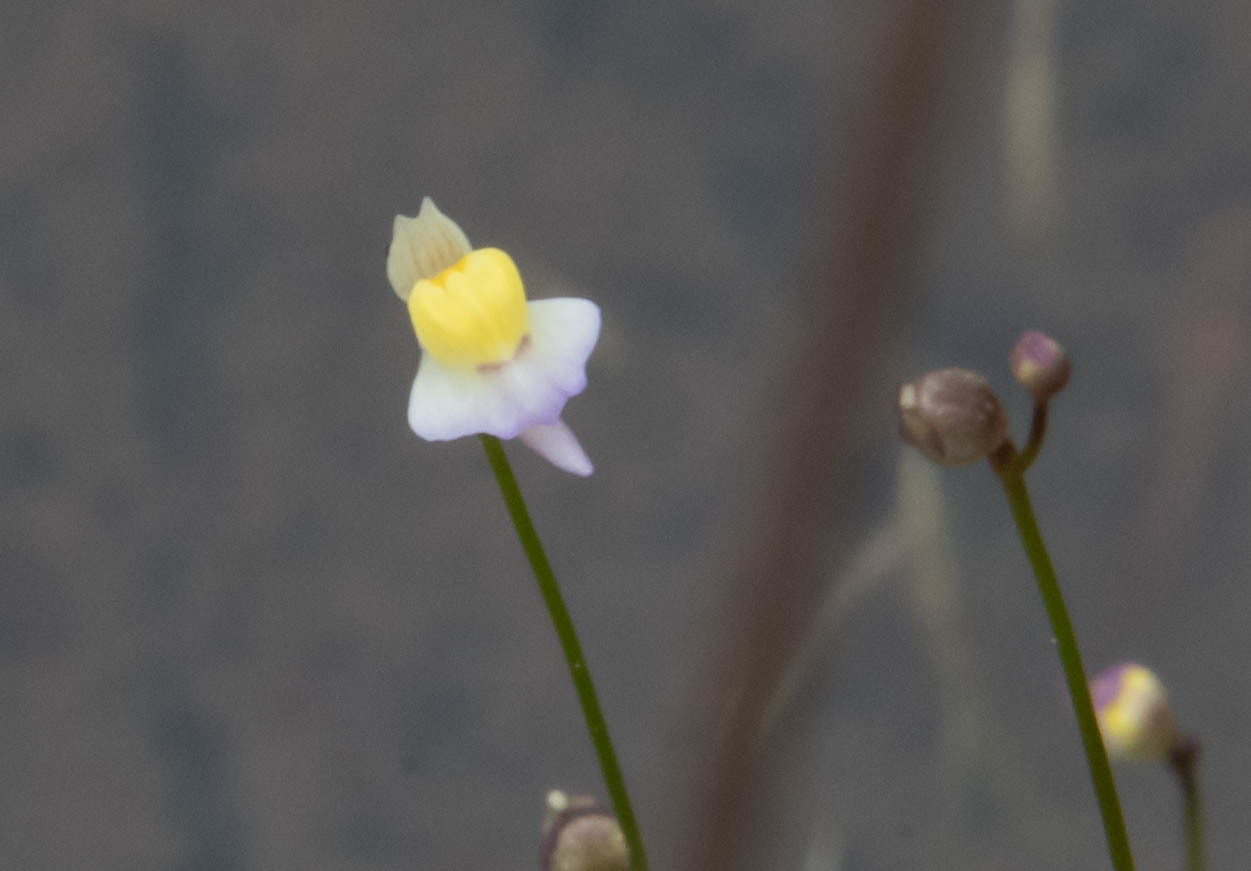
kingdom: Plantae
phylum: Tracheophyta
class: Magnoliopsida
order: Lamiales
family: Lentibulariaceae
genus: Utricularia
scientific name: Utricularia bisquamata
